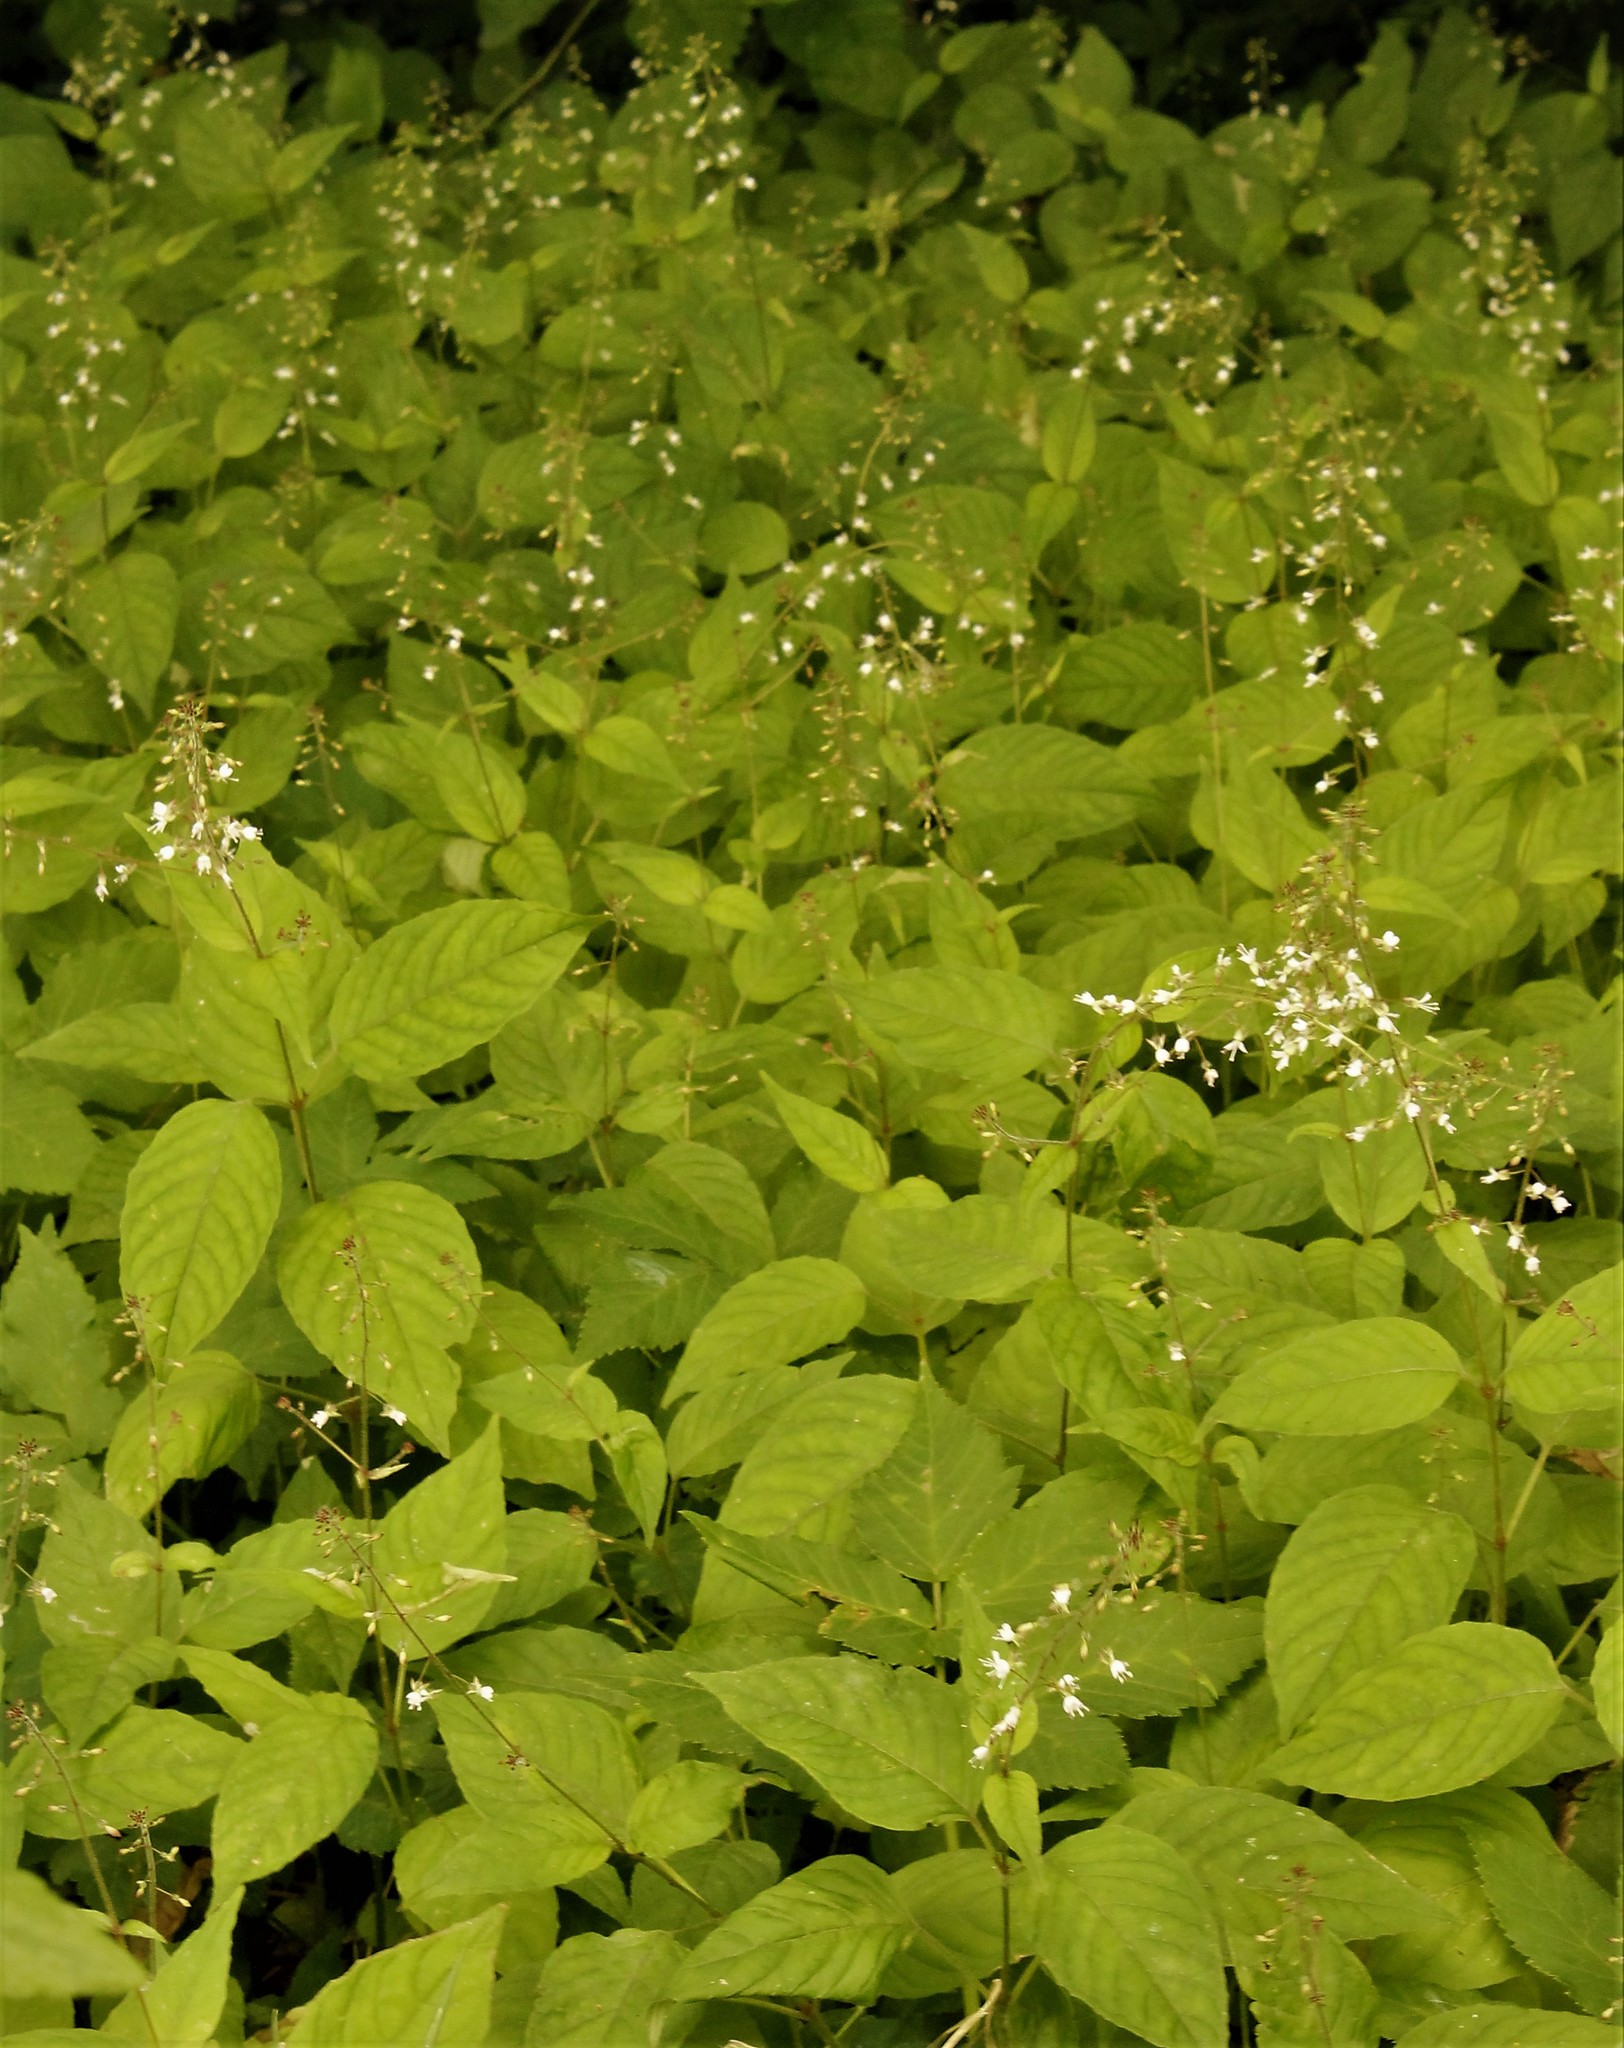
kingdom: Plantae
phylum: Tracheophyta
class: Magnoliopsida
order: Myrtales
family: Onagraceae
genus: Circaea
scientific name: Circaea lutetiana
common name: Enchanter's-nightshade
